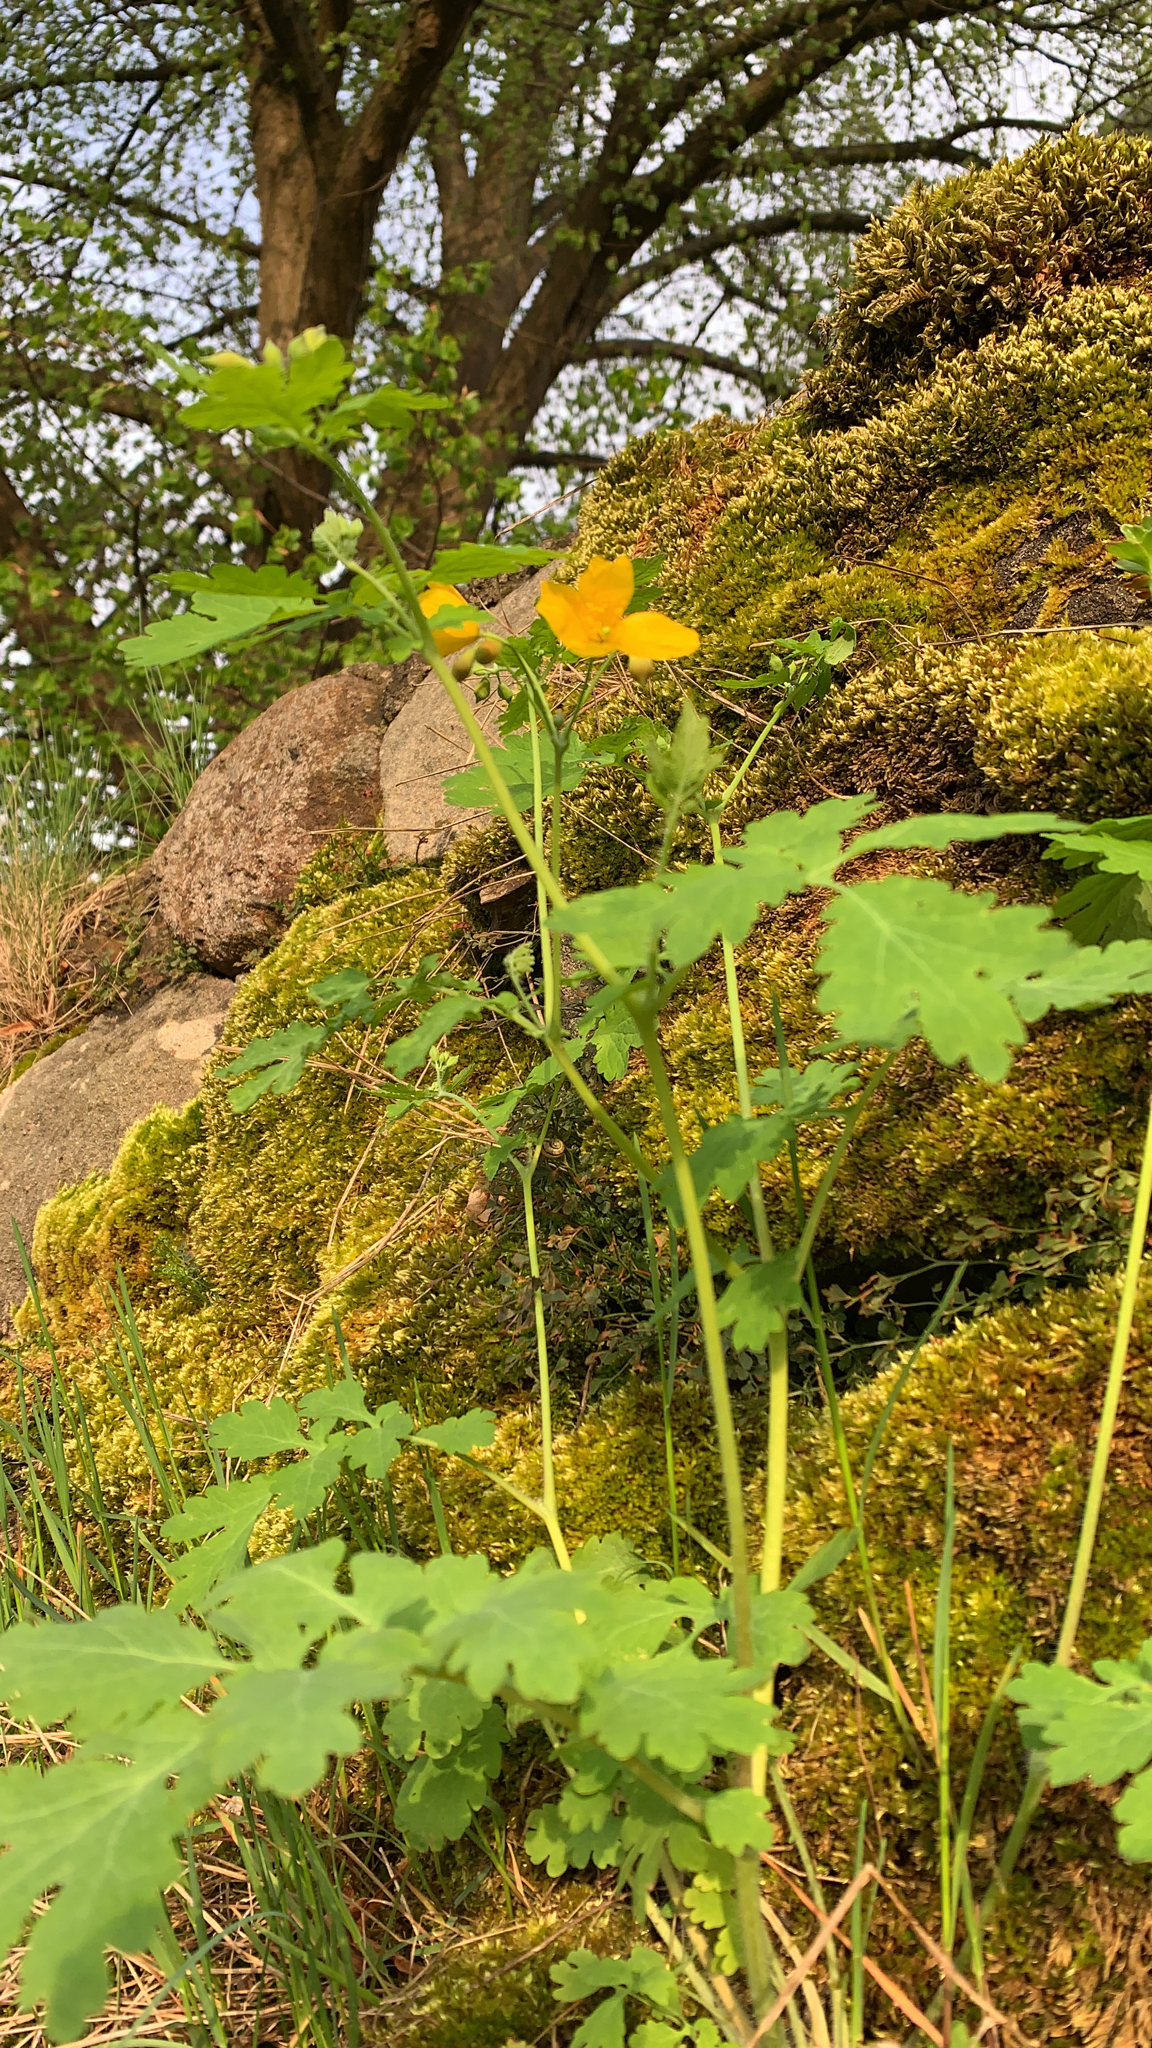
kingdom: Plantae
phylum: Tracheophyta
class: Magnoliopsida
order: Ranunculales
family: Papaveraceae
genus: Chelidonium
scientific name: Chelidonium majus
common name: Greater celandine
